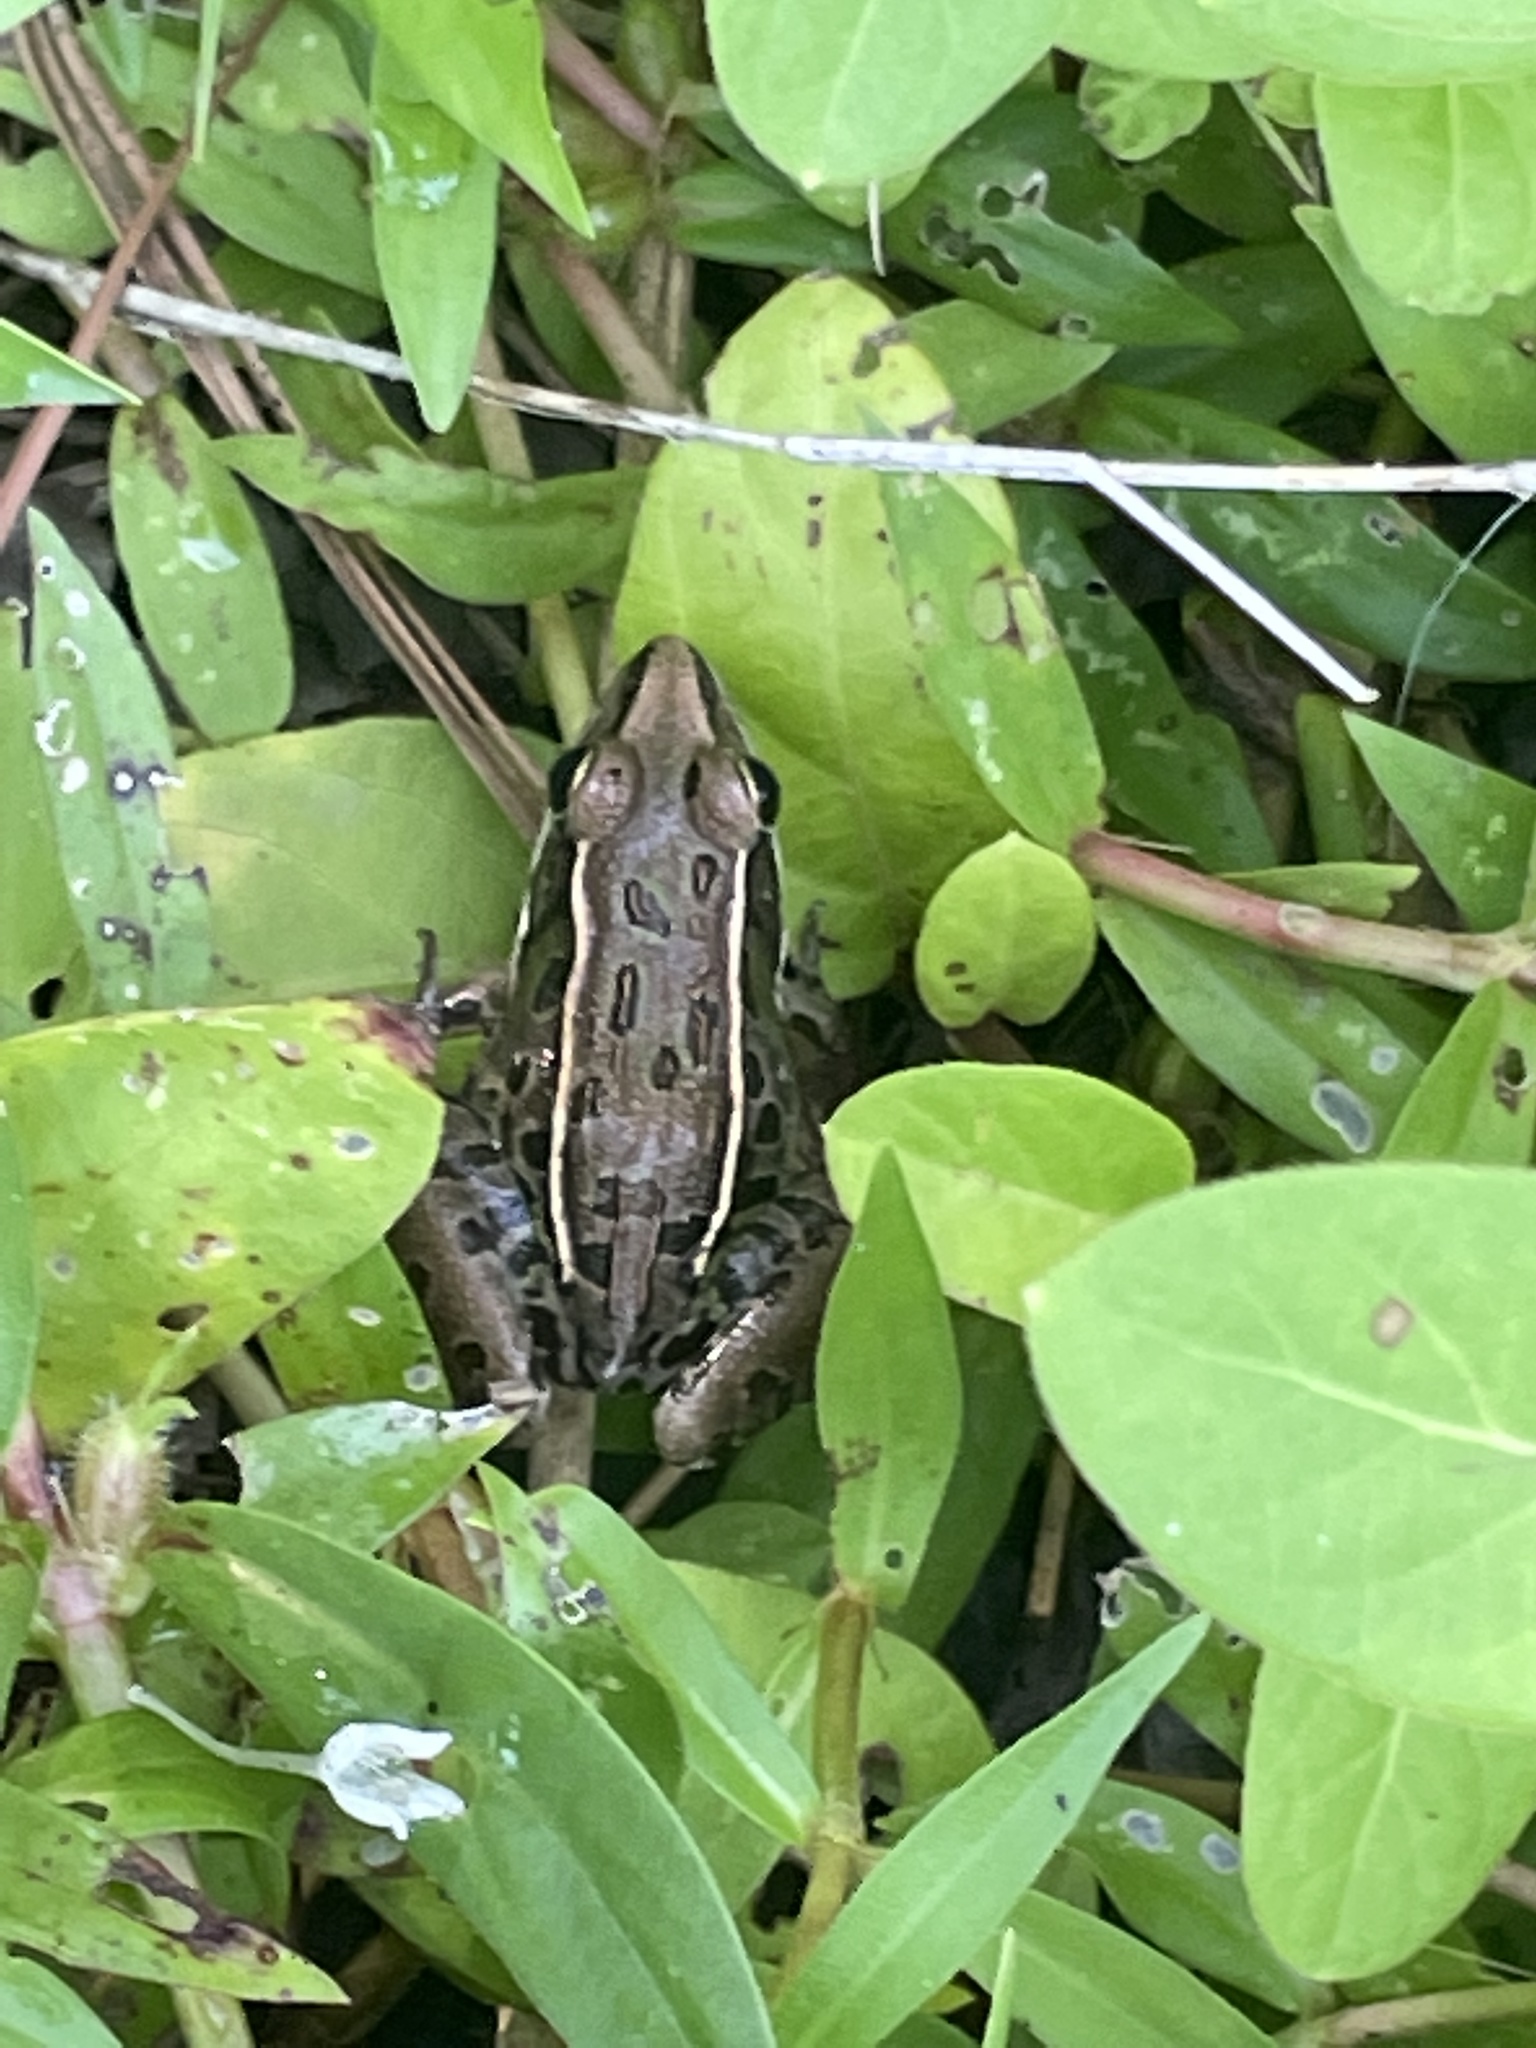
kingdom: Animalia
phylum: Chordata
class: Amphibia
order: Anura
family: Ranidae
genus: Lithobates
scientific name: Lithobates sphenocephalus
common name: Southern leopard frog
